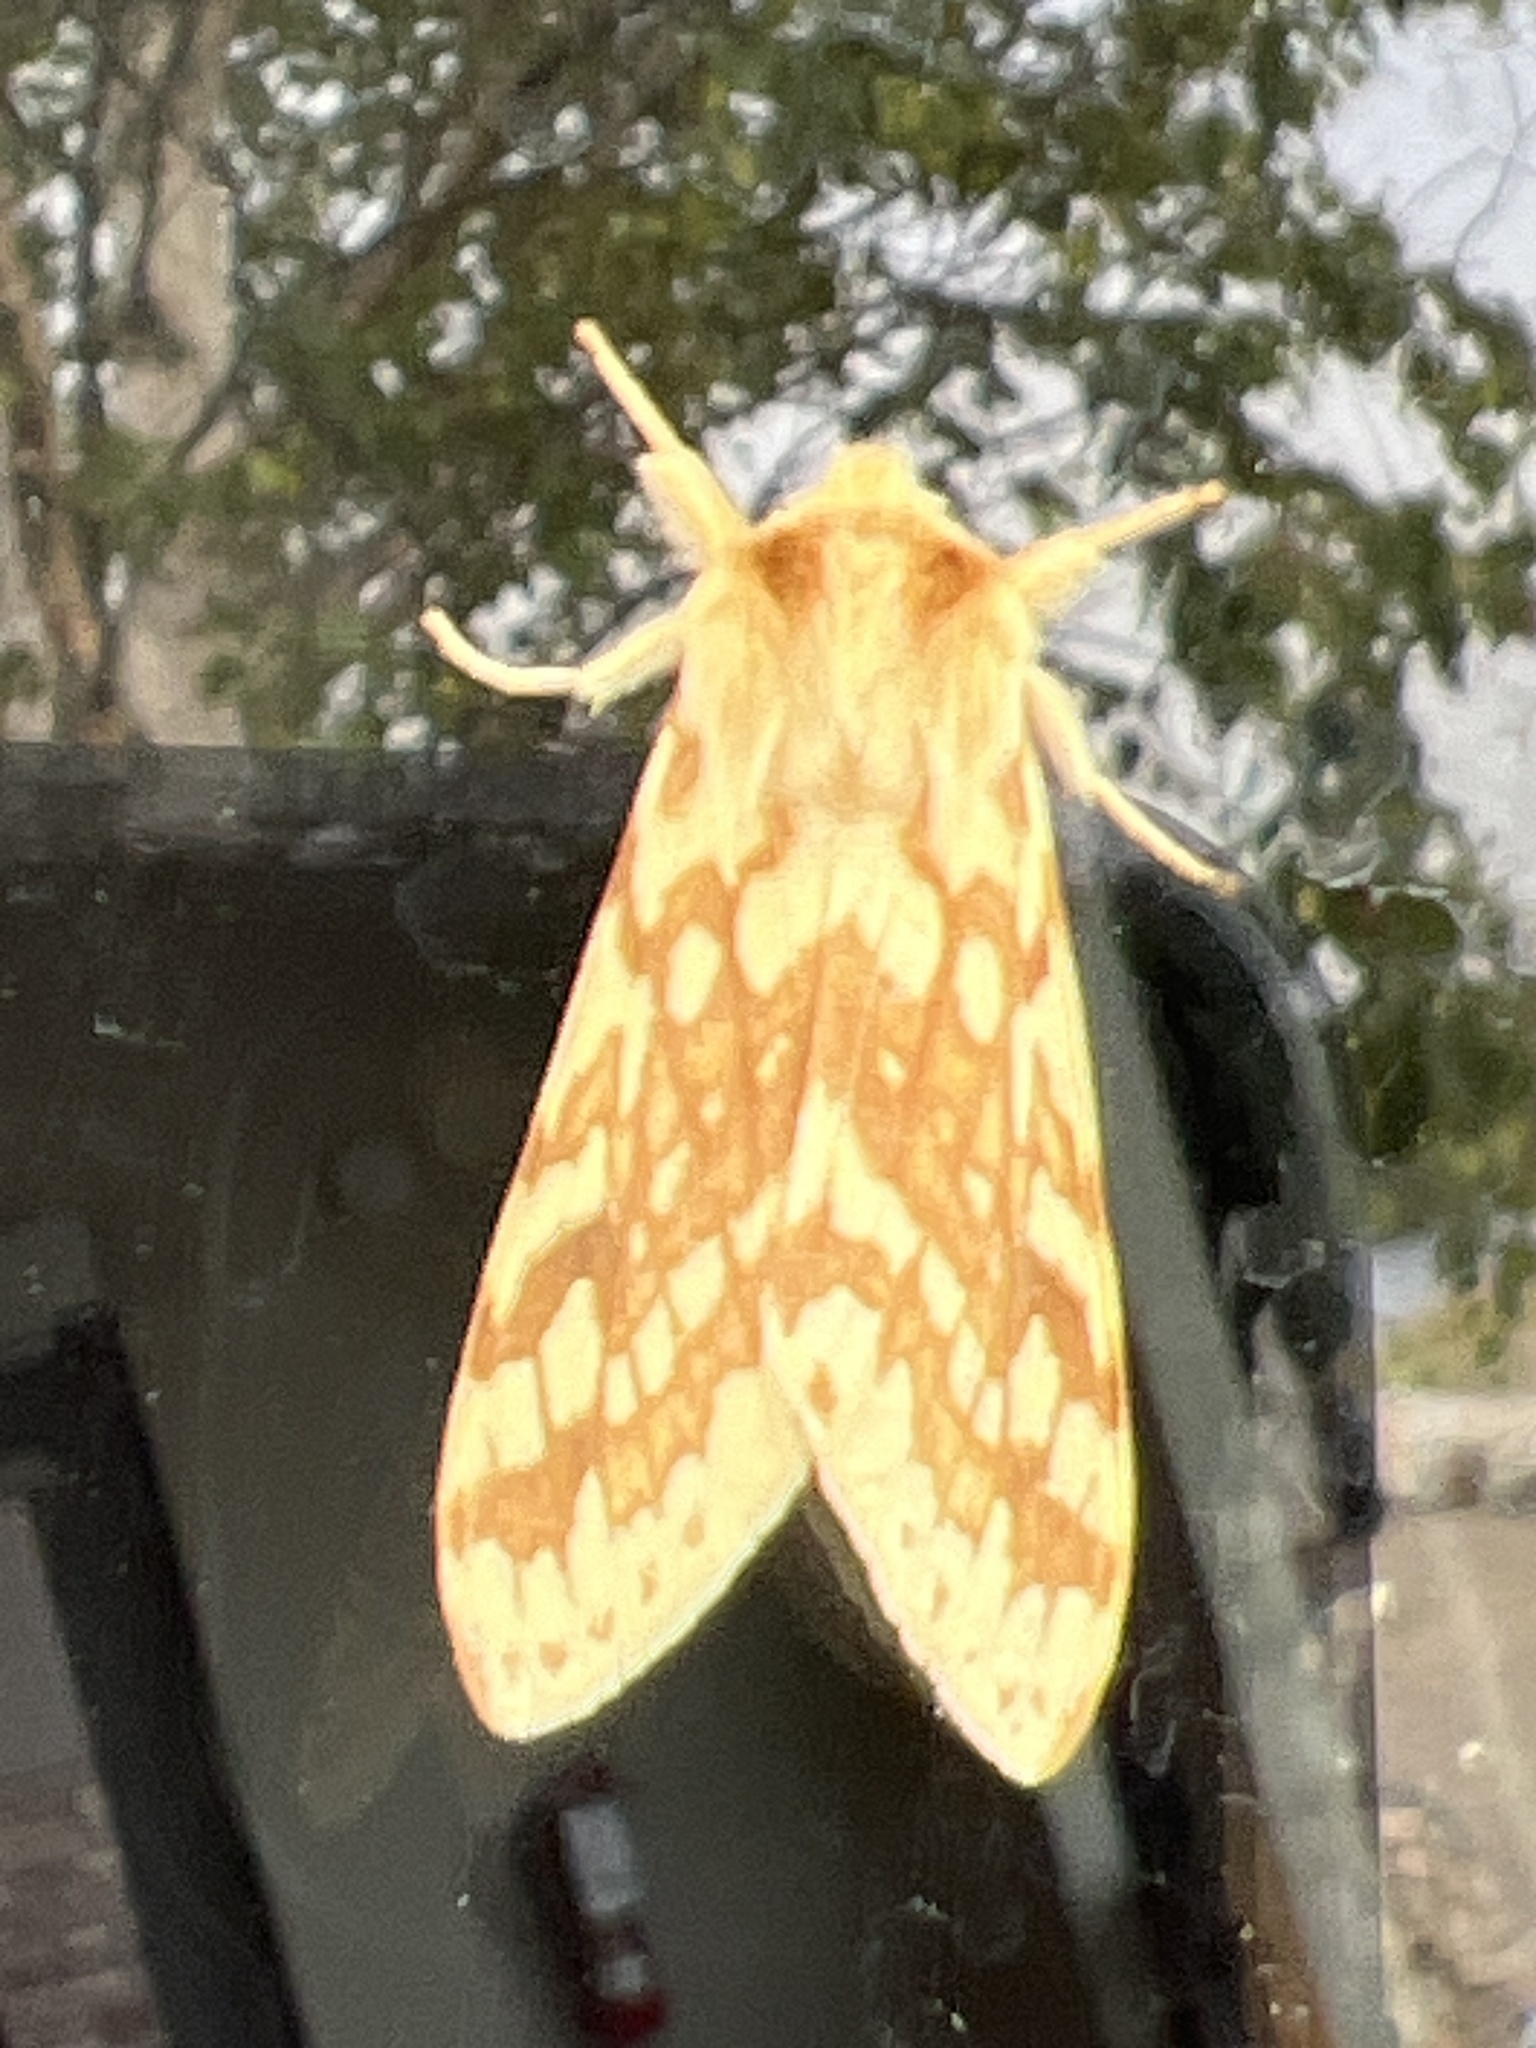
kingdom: Animalia
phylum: Arthropoda
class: Insecta
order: Lepidoptera
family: Erebidae
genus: Lophocampa
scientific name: Lophocampa maculata
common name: Spotted tussock moth
